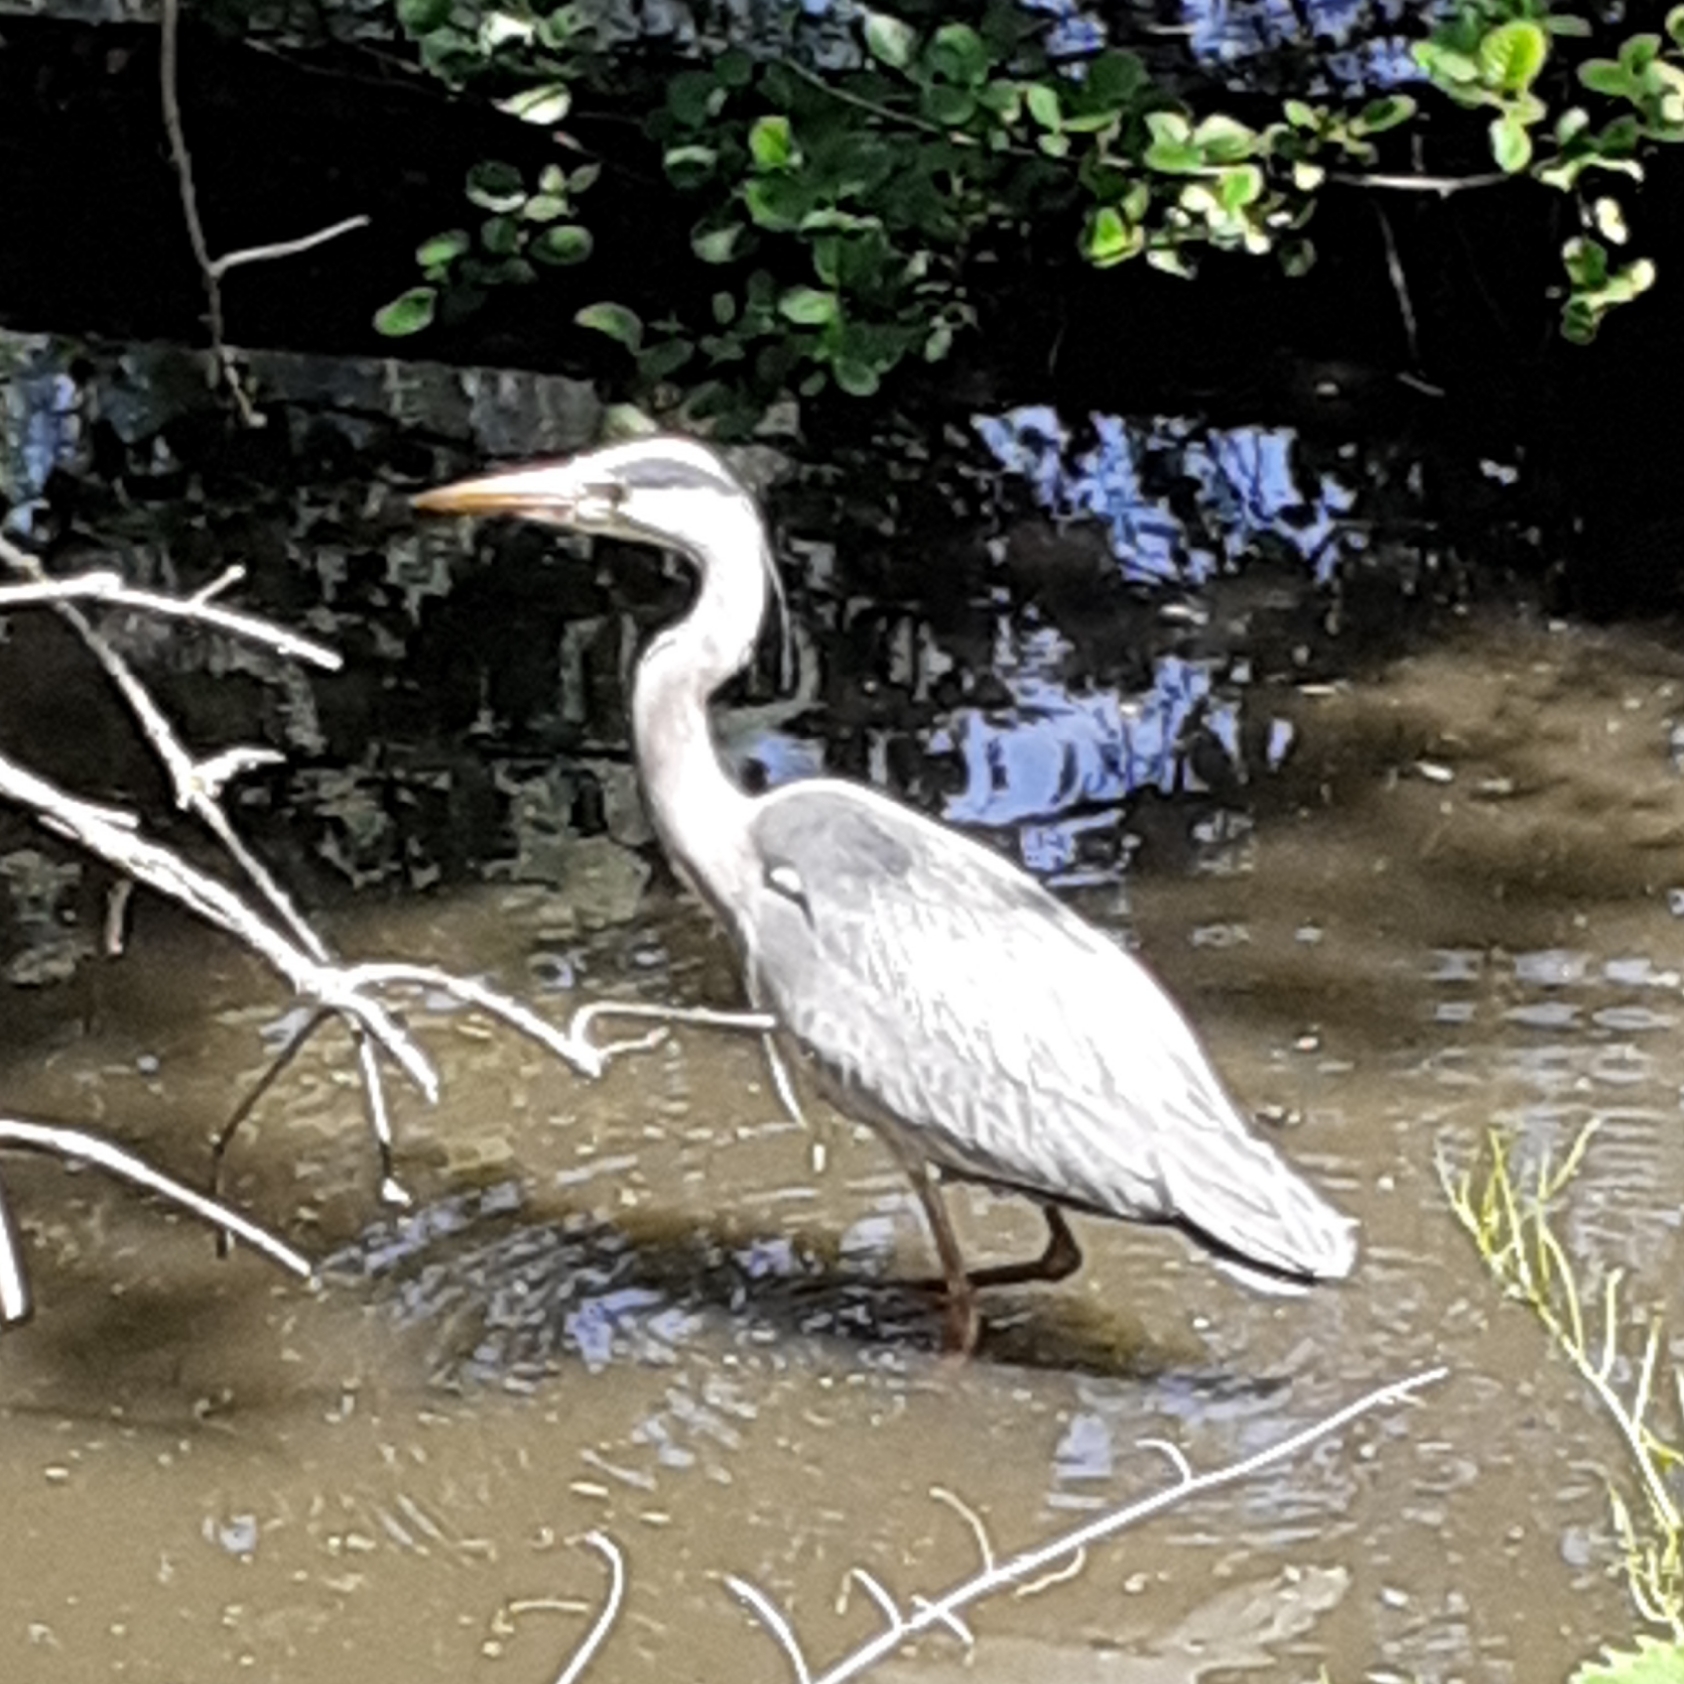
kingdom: Animalia
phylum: Chordata
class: Aves
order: Pelecaniformes
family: Ardeidae
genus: Ardea
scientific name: Ardea cinerea
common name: Grey heron
